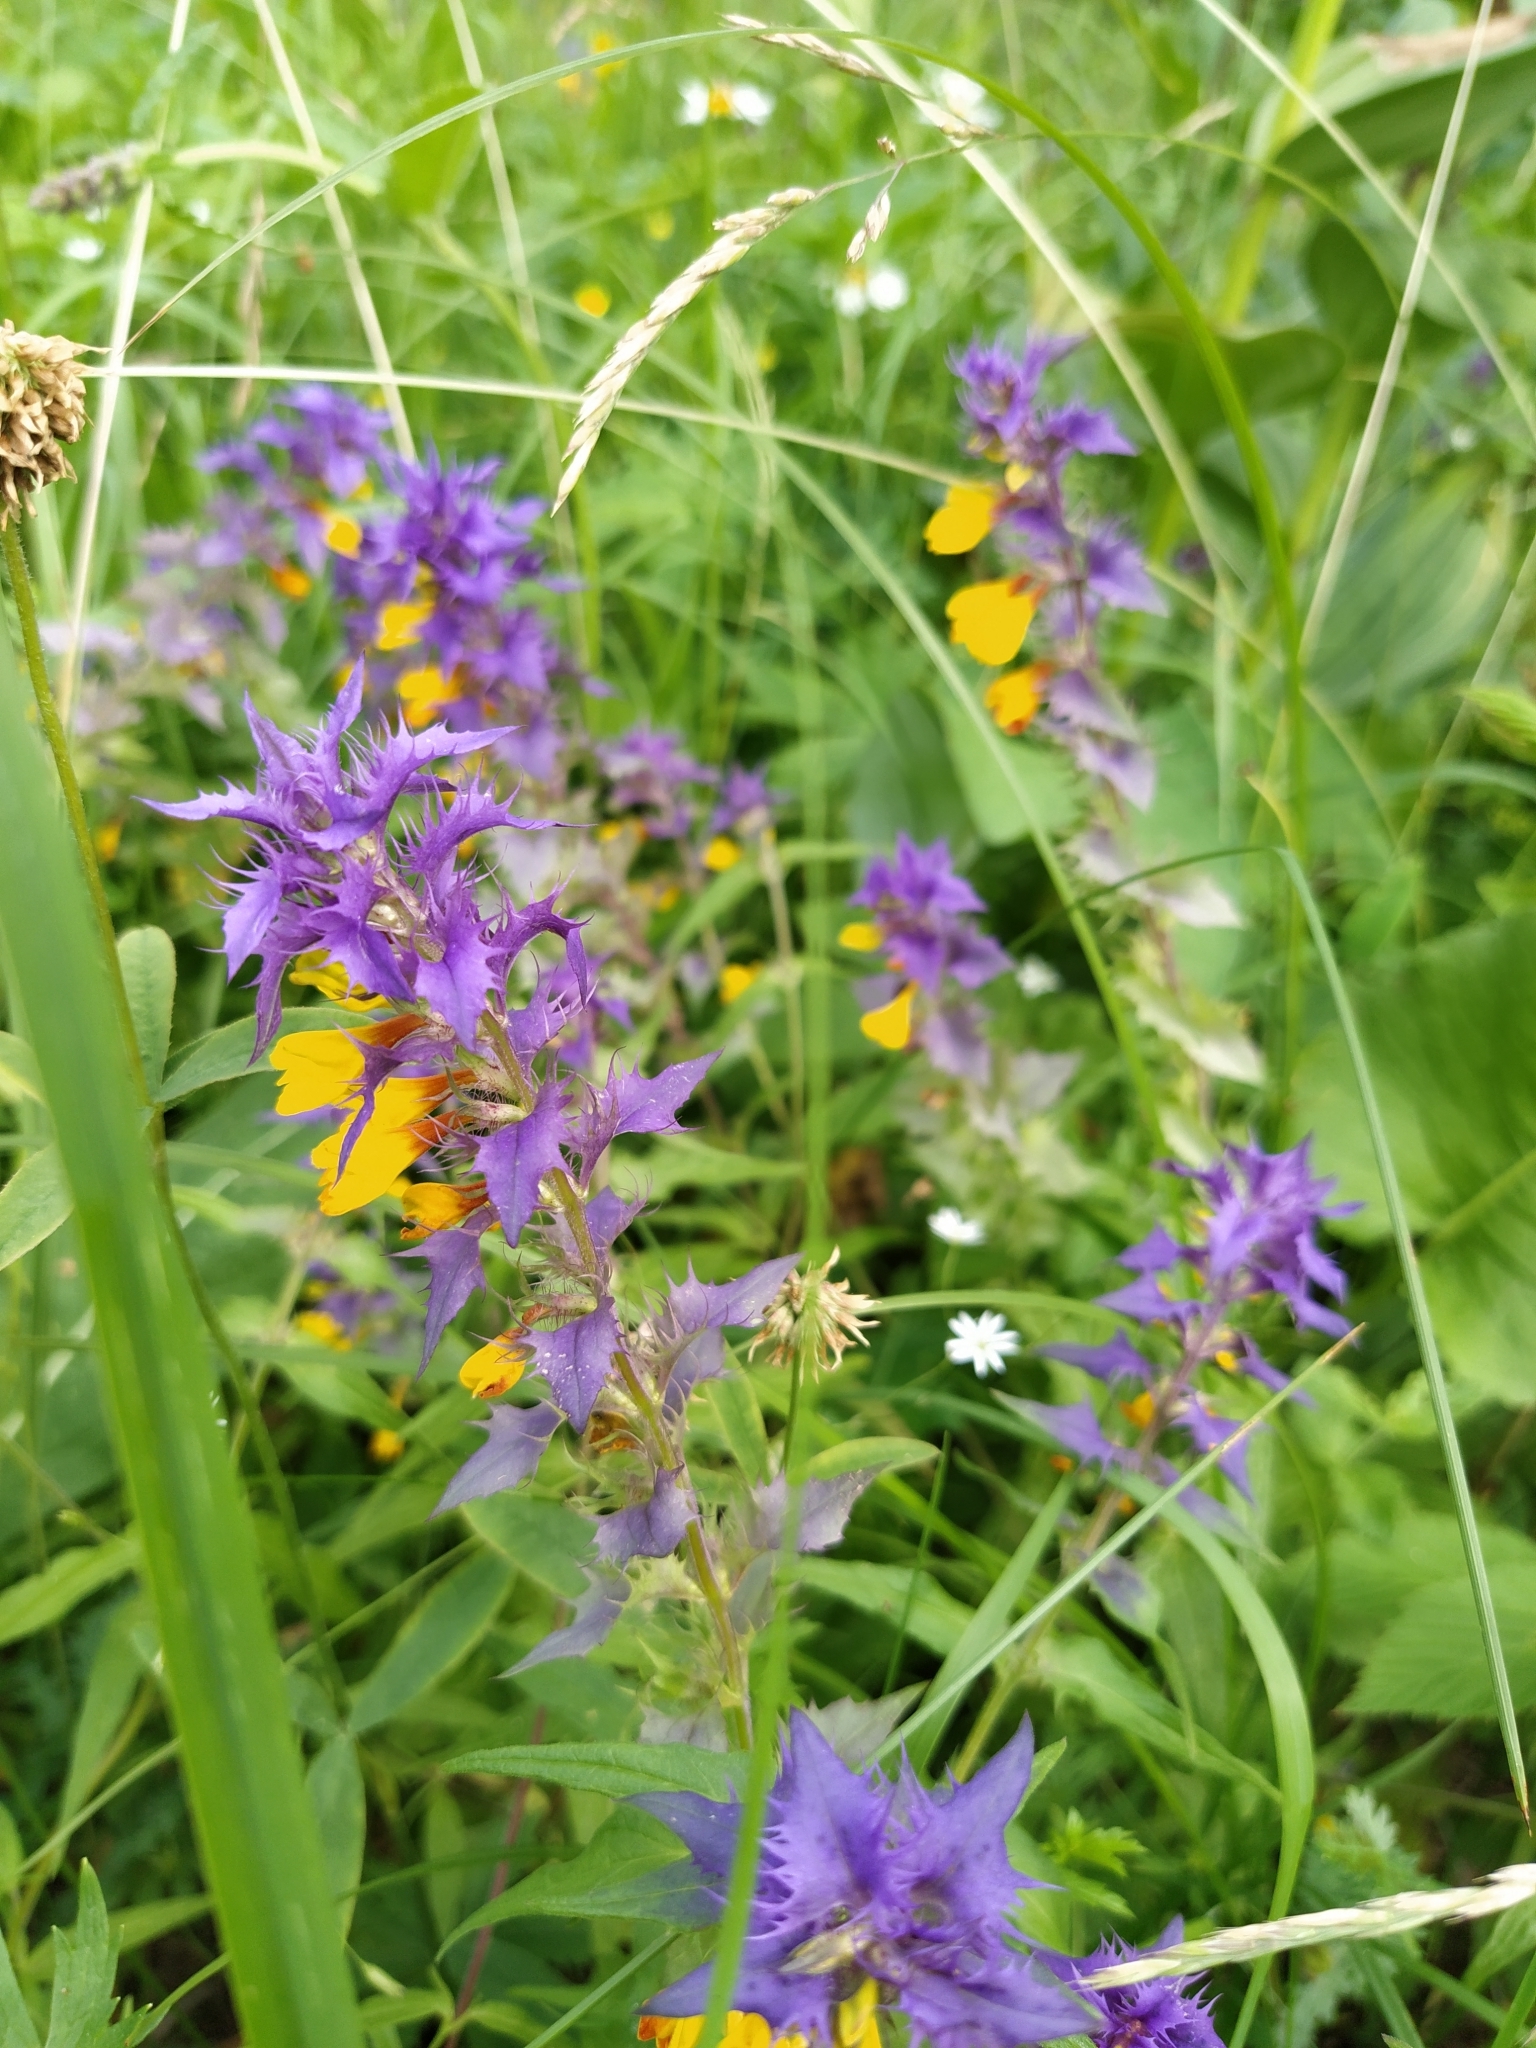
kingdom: Plantae
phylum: Tracheophyta
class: Magnoliopsida
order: Lamiales
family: Orobanchaceae
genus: Melampyrum
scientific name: Melampyrum nemorosum
